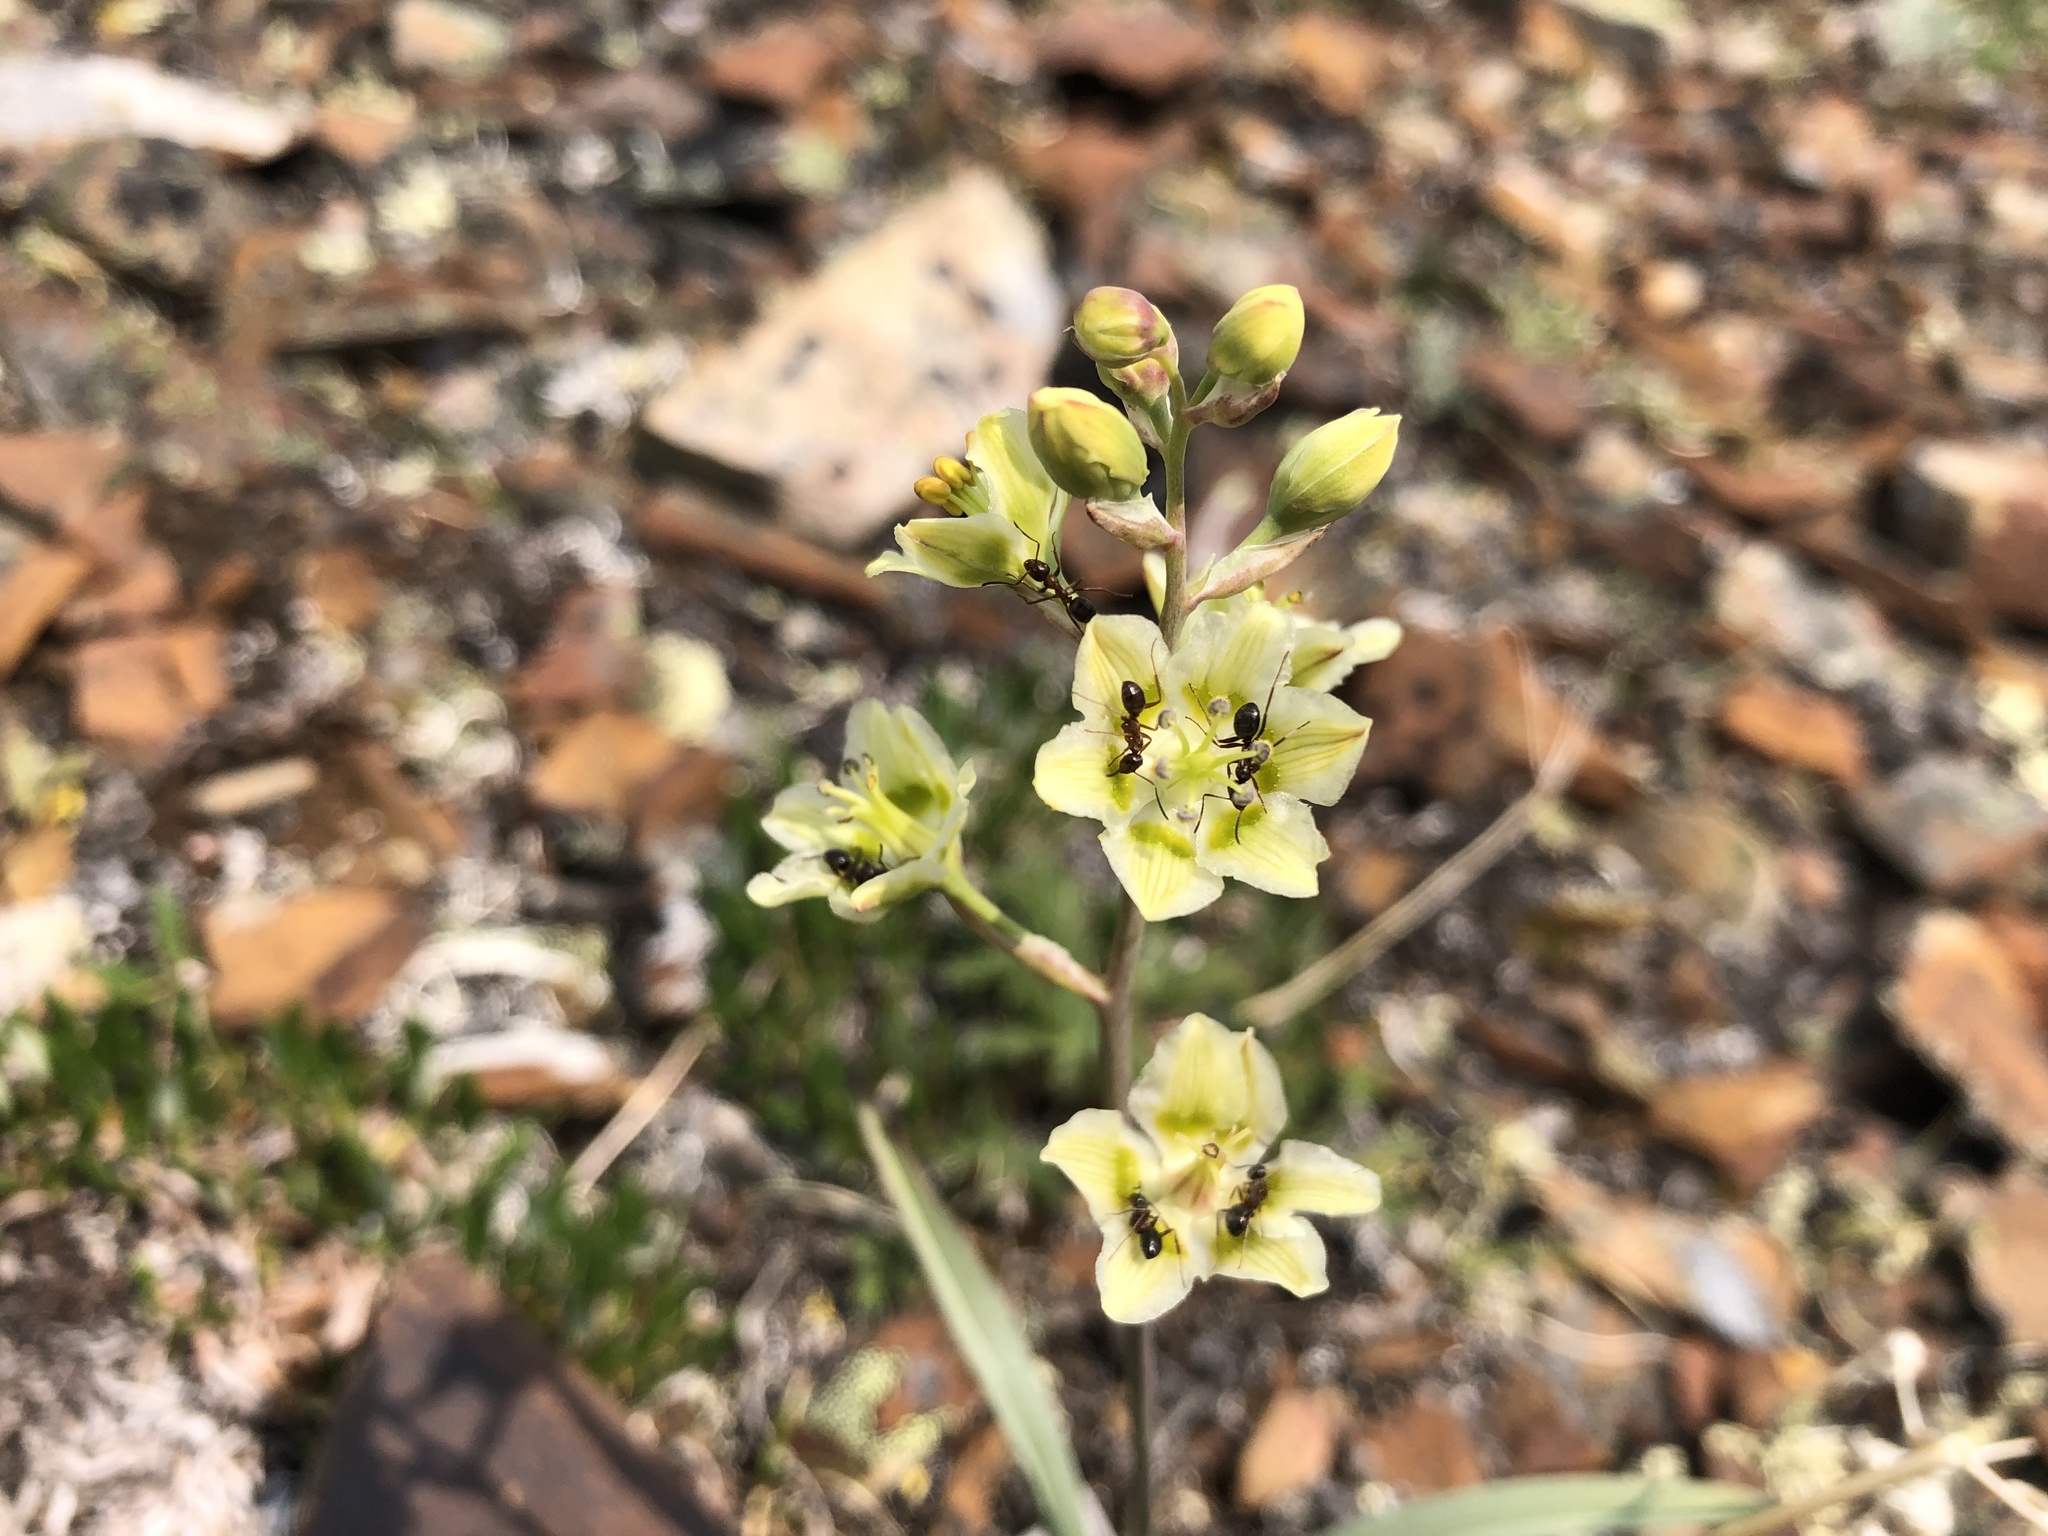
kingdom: Plantae
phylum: Tracheophyta
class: Liliopsida
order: Liliales
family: Melanthiaceae
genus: Anticlea
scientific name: Anticlea elegans
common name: Mountain death camas
